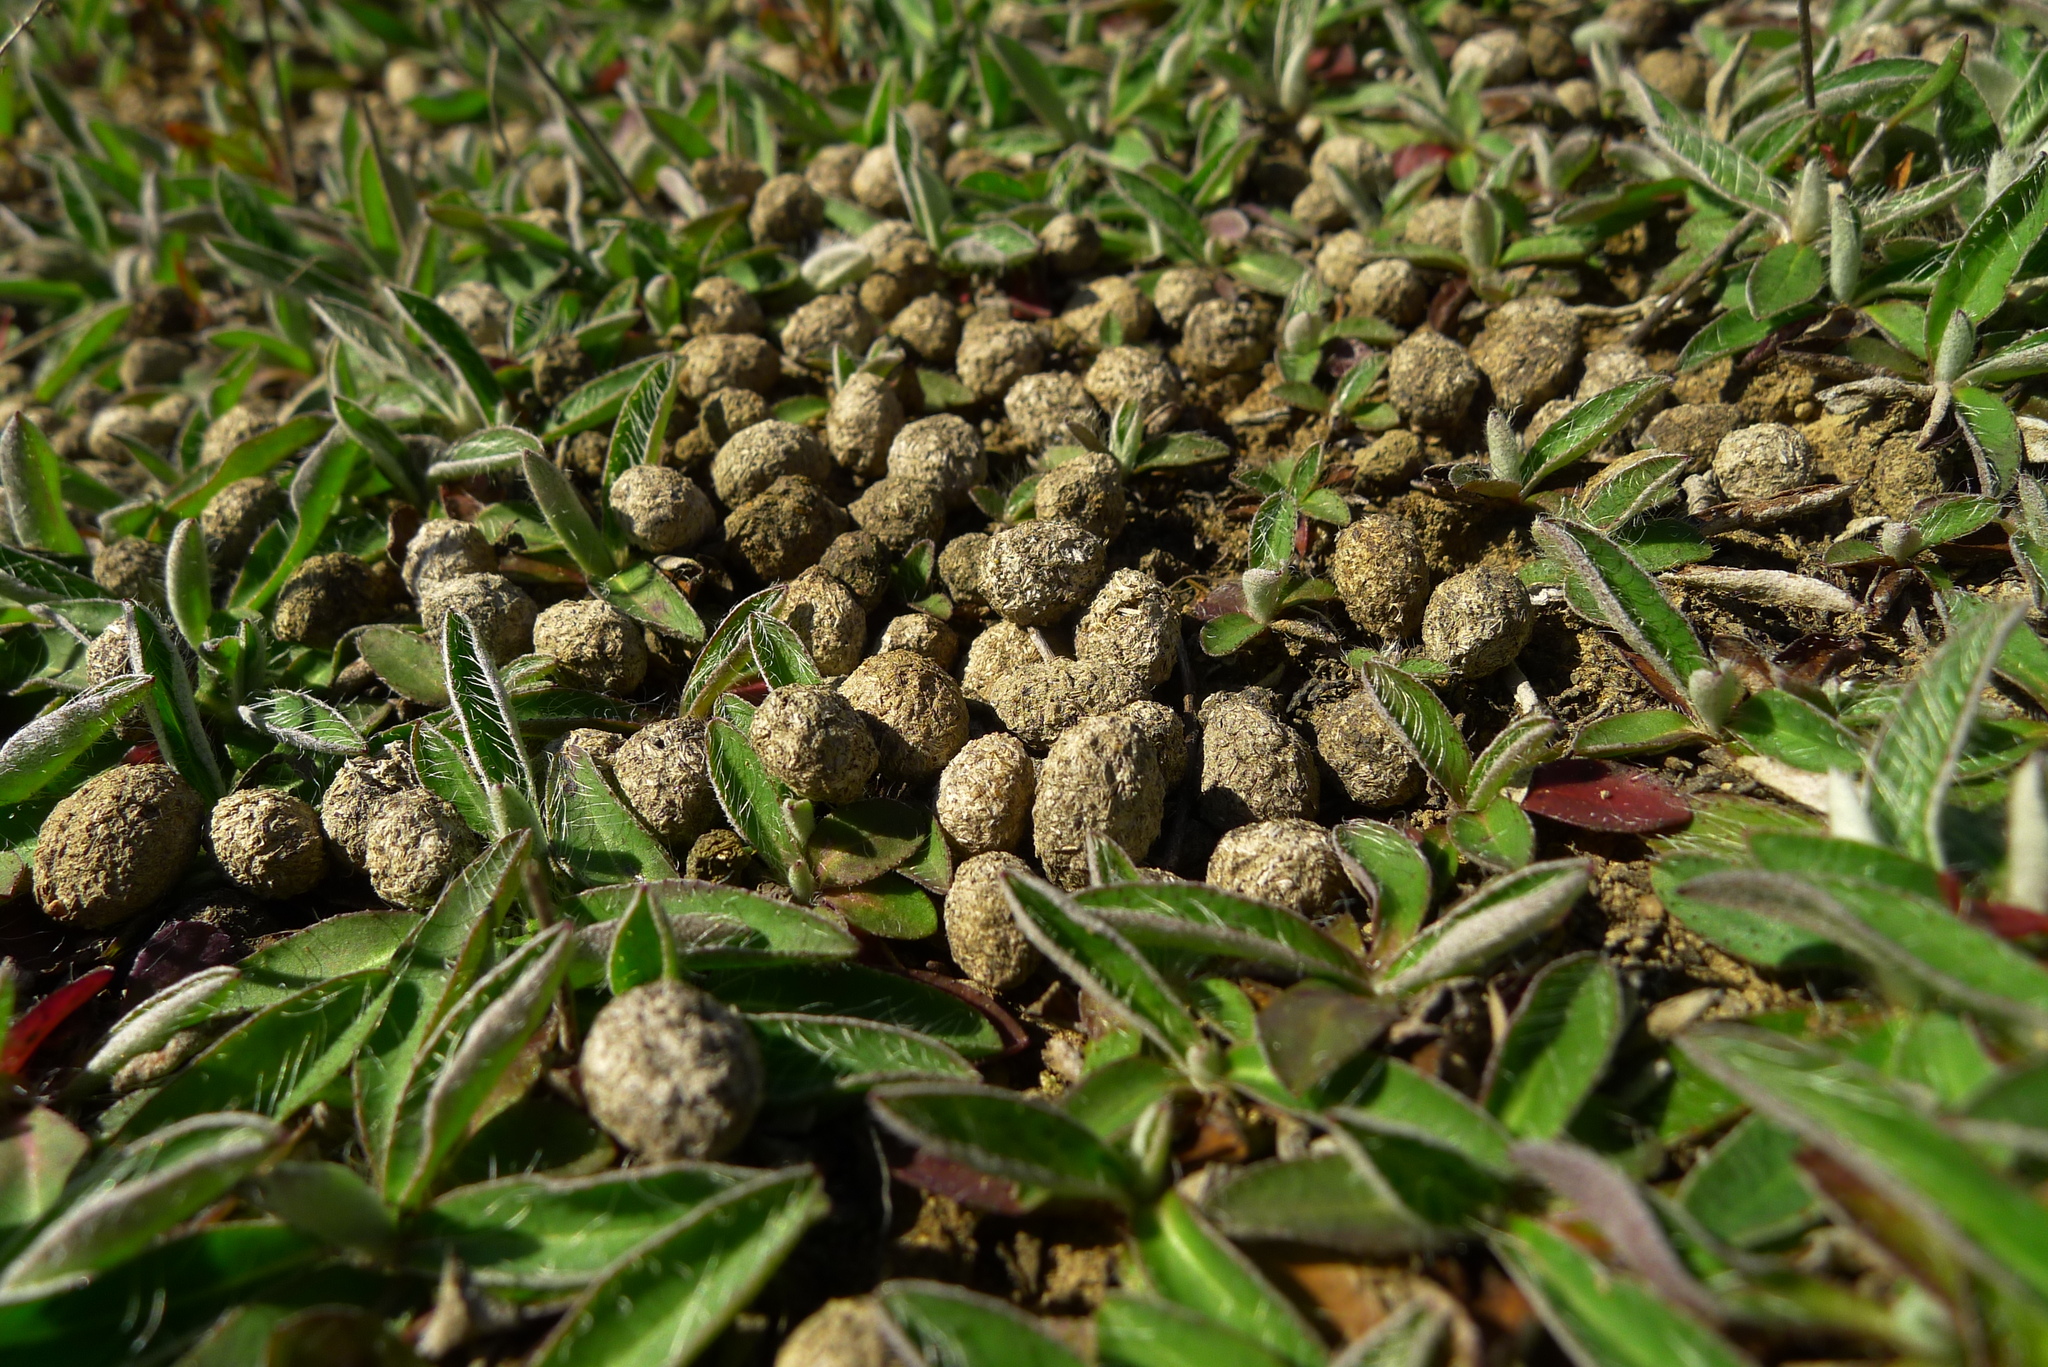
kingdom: Plantae
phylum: Tracheophyta
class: Magnoliopsida
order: Asterales
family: Asteraceae
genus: Pilosella
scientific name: Pilosella officinarum
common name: Mouse-ear hawkweed
